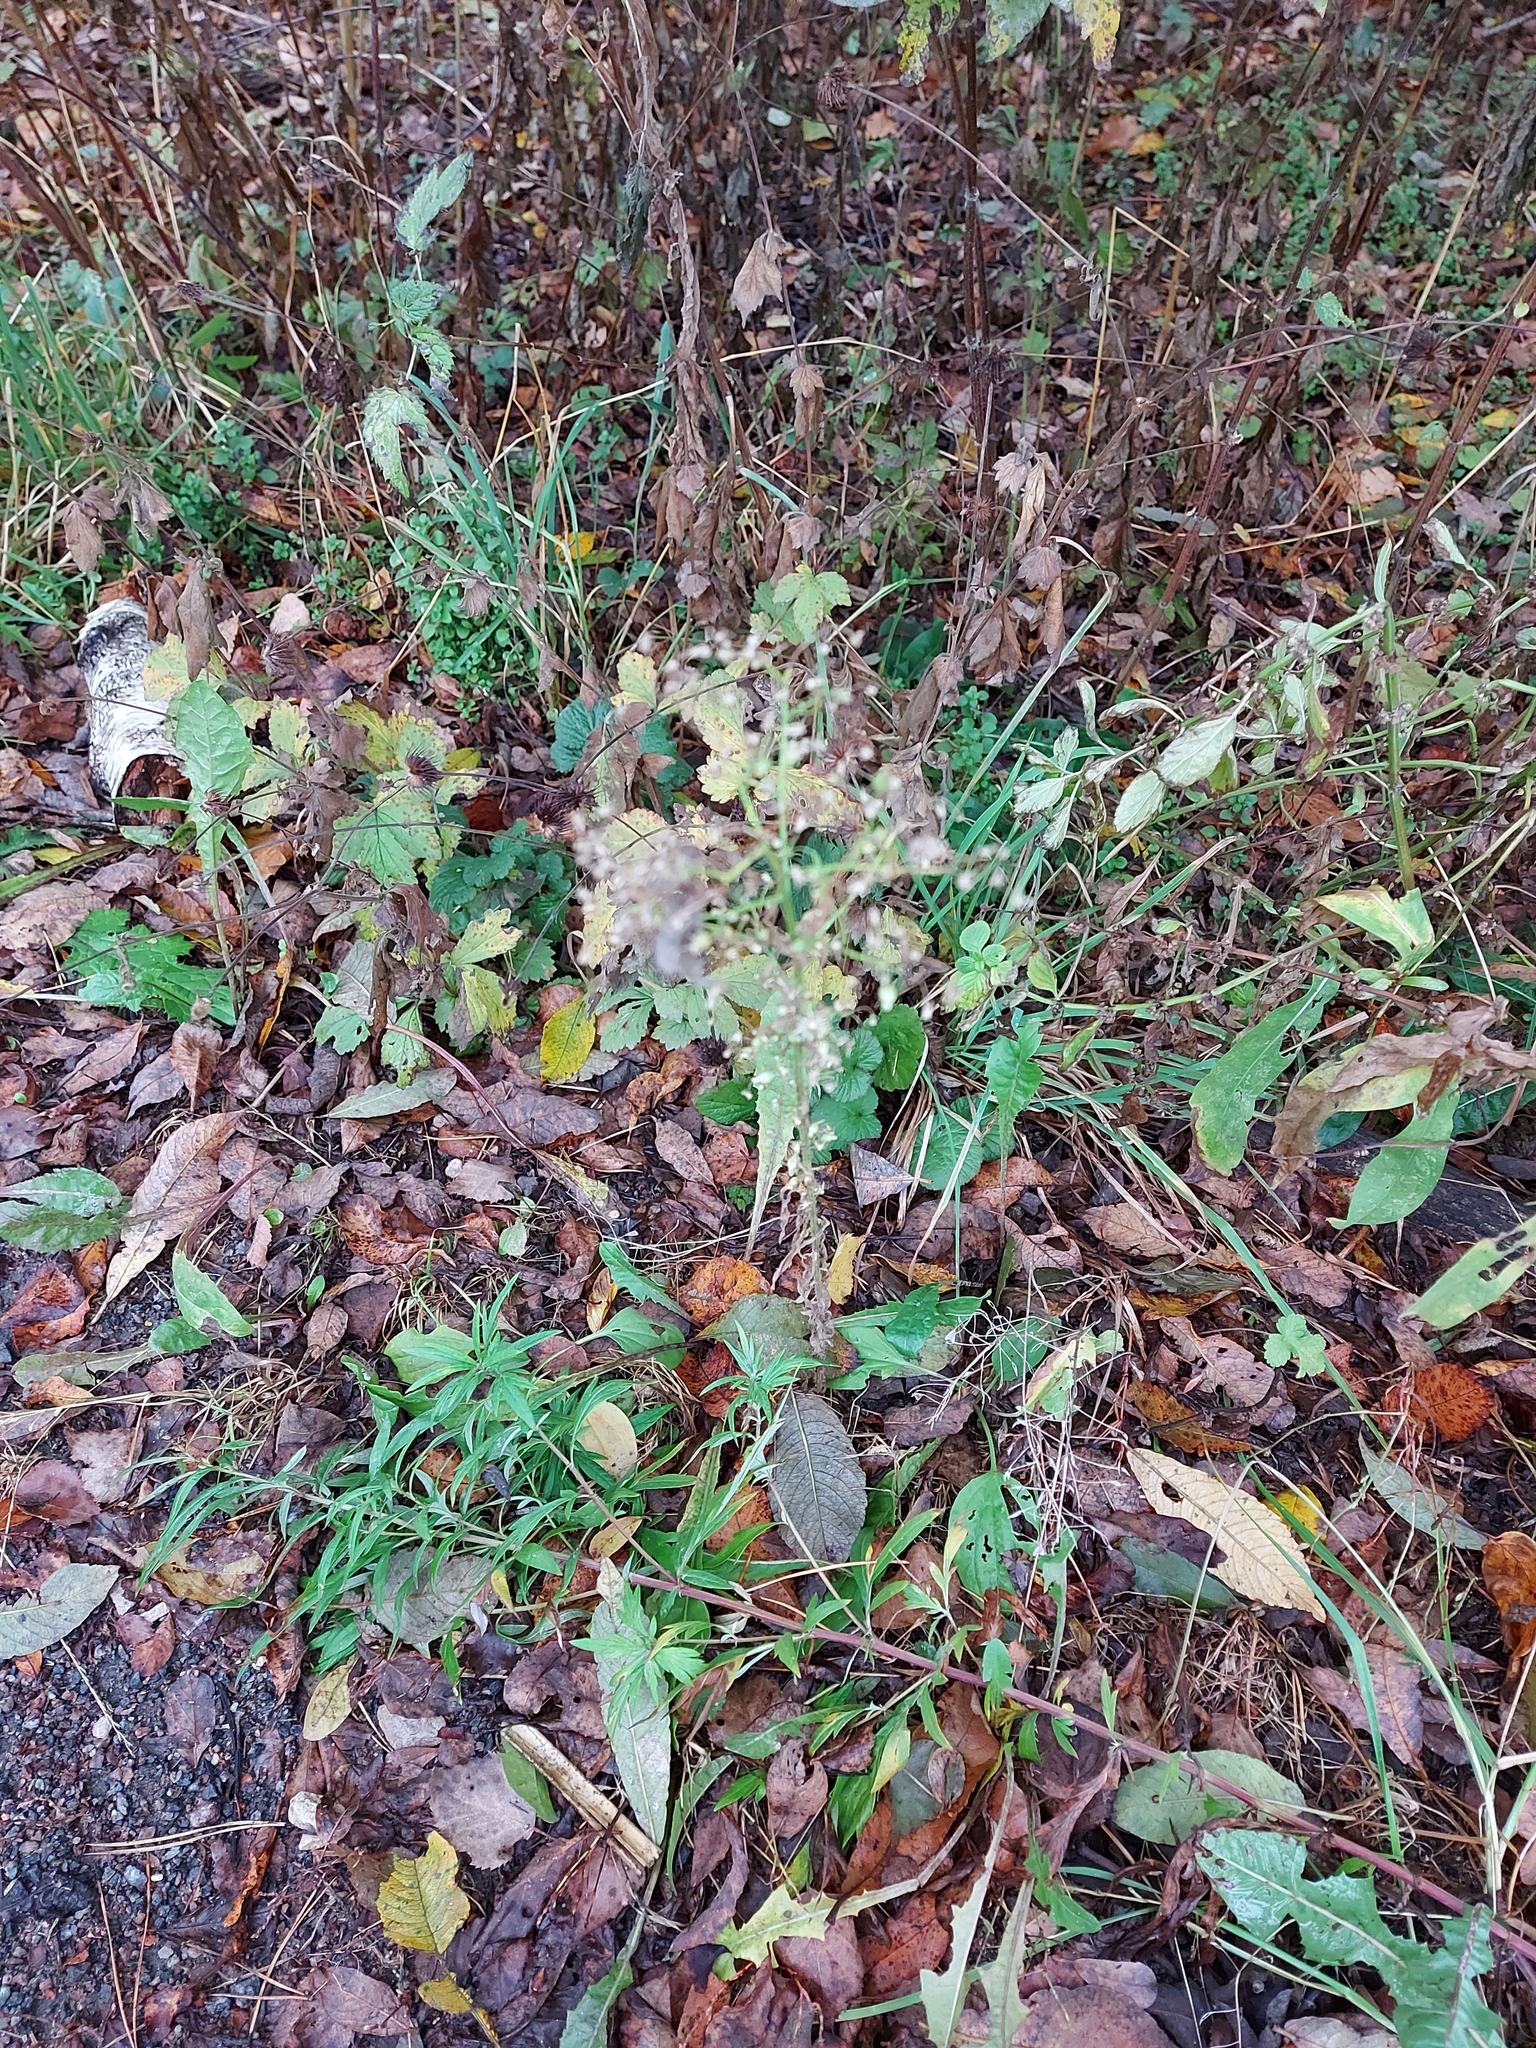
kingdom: Plantae
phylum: Tracheophyta
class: Magnoliopsida
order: Asterales
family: Asteraceae
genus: Erigeron
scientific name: Erigeron canadensis
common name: Canadian fleabane
